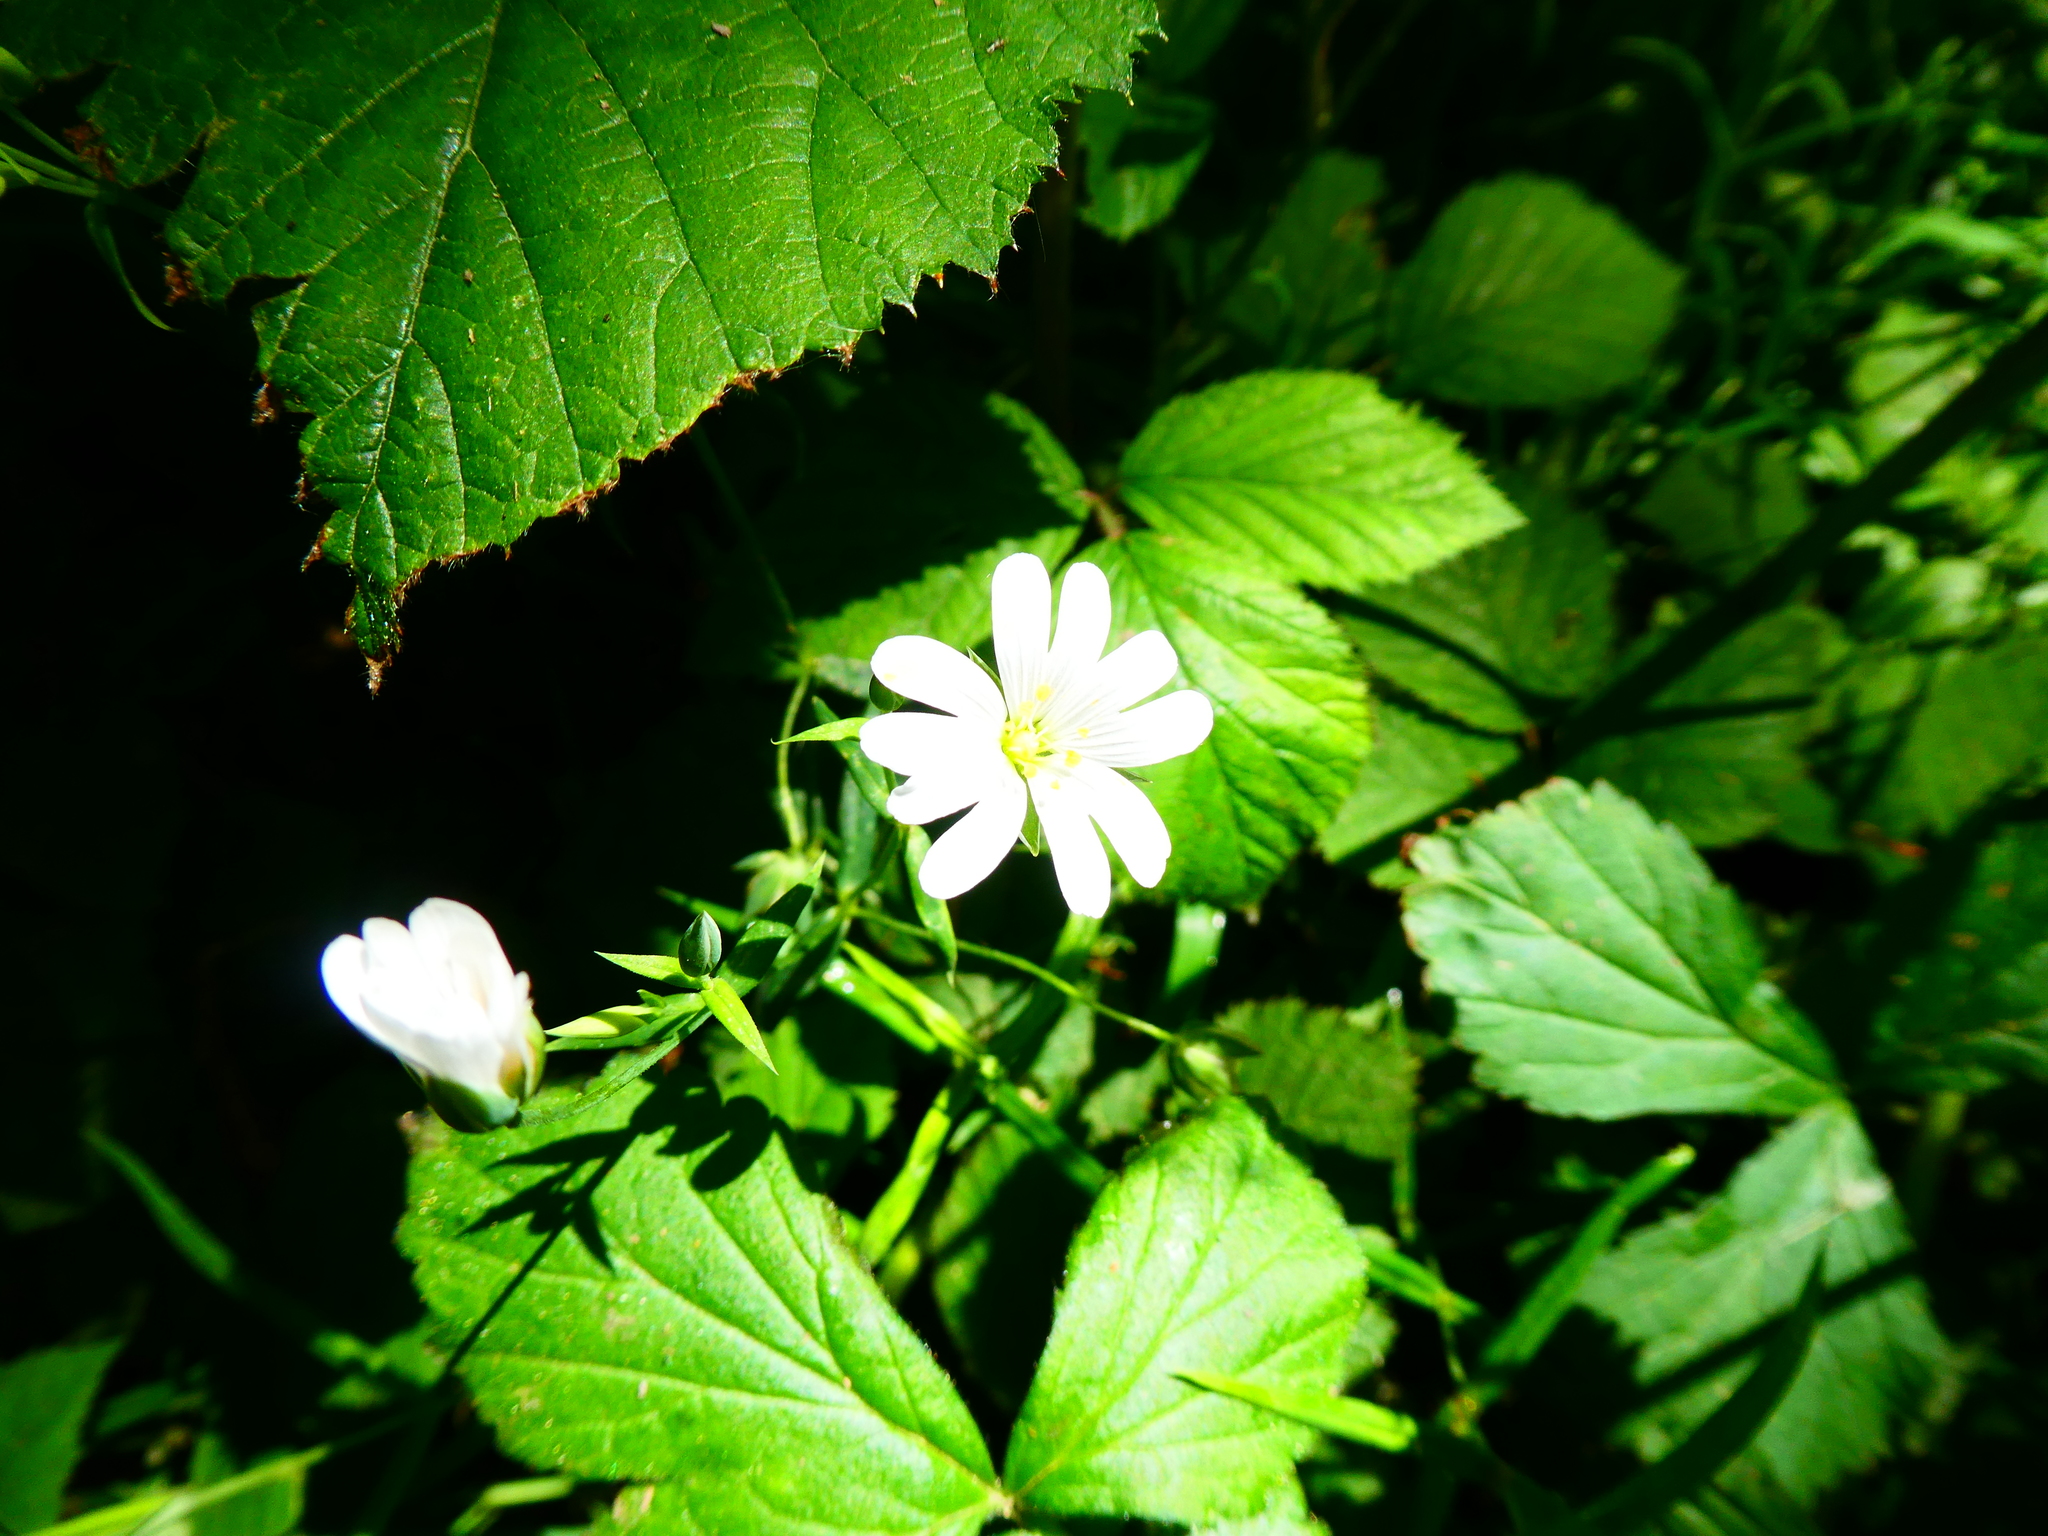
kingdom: Plantae
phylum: Tracheophyta
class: Magnoliopsida
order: Caryophyllales
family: Caryophyllaceae
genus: Rabelera
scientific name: Rabelera holostea
